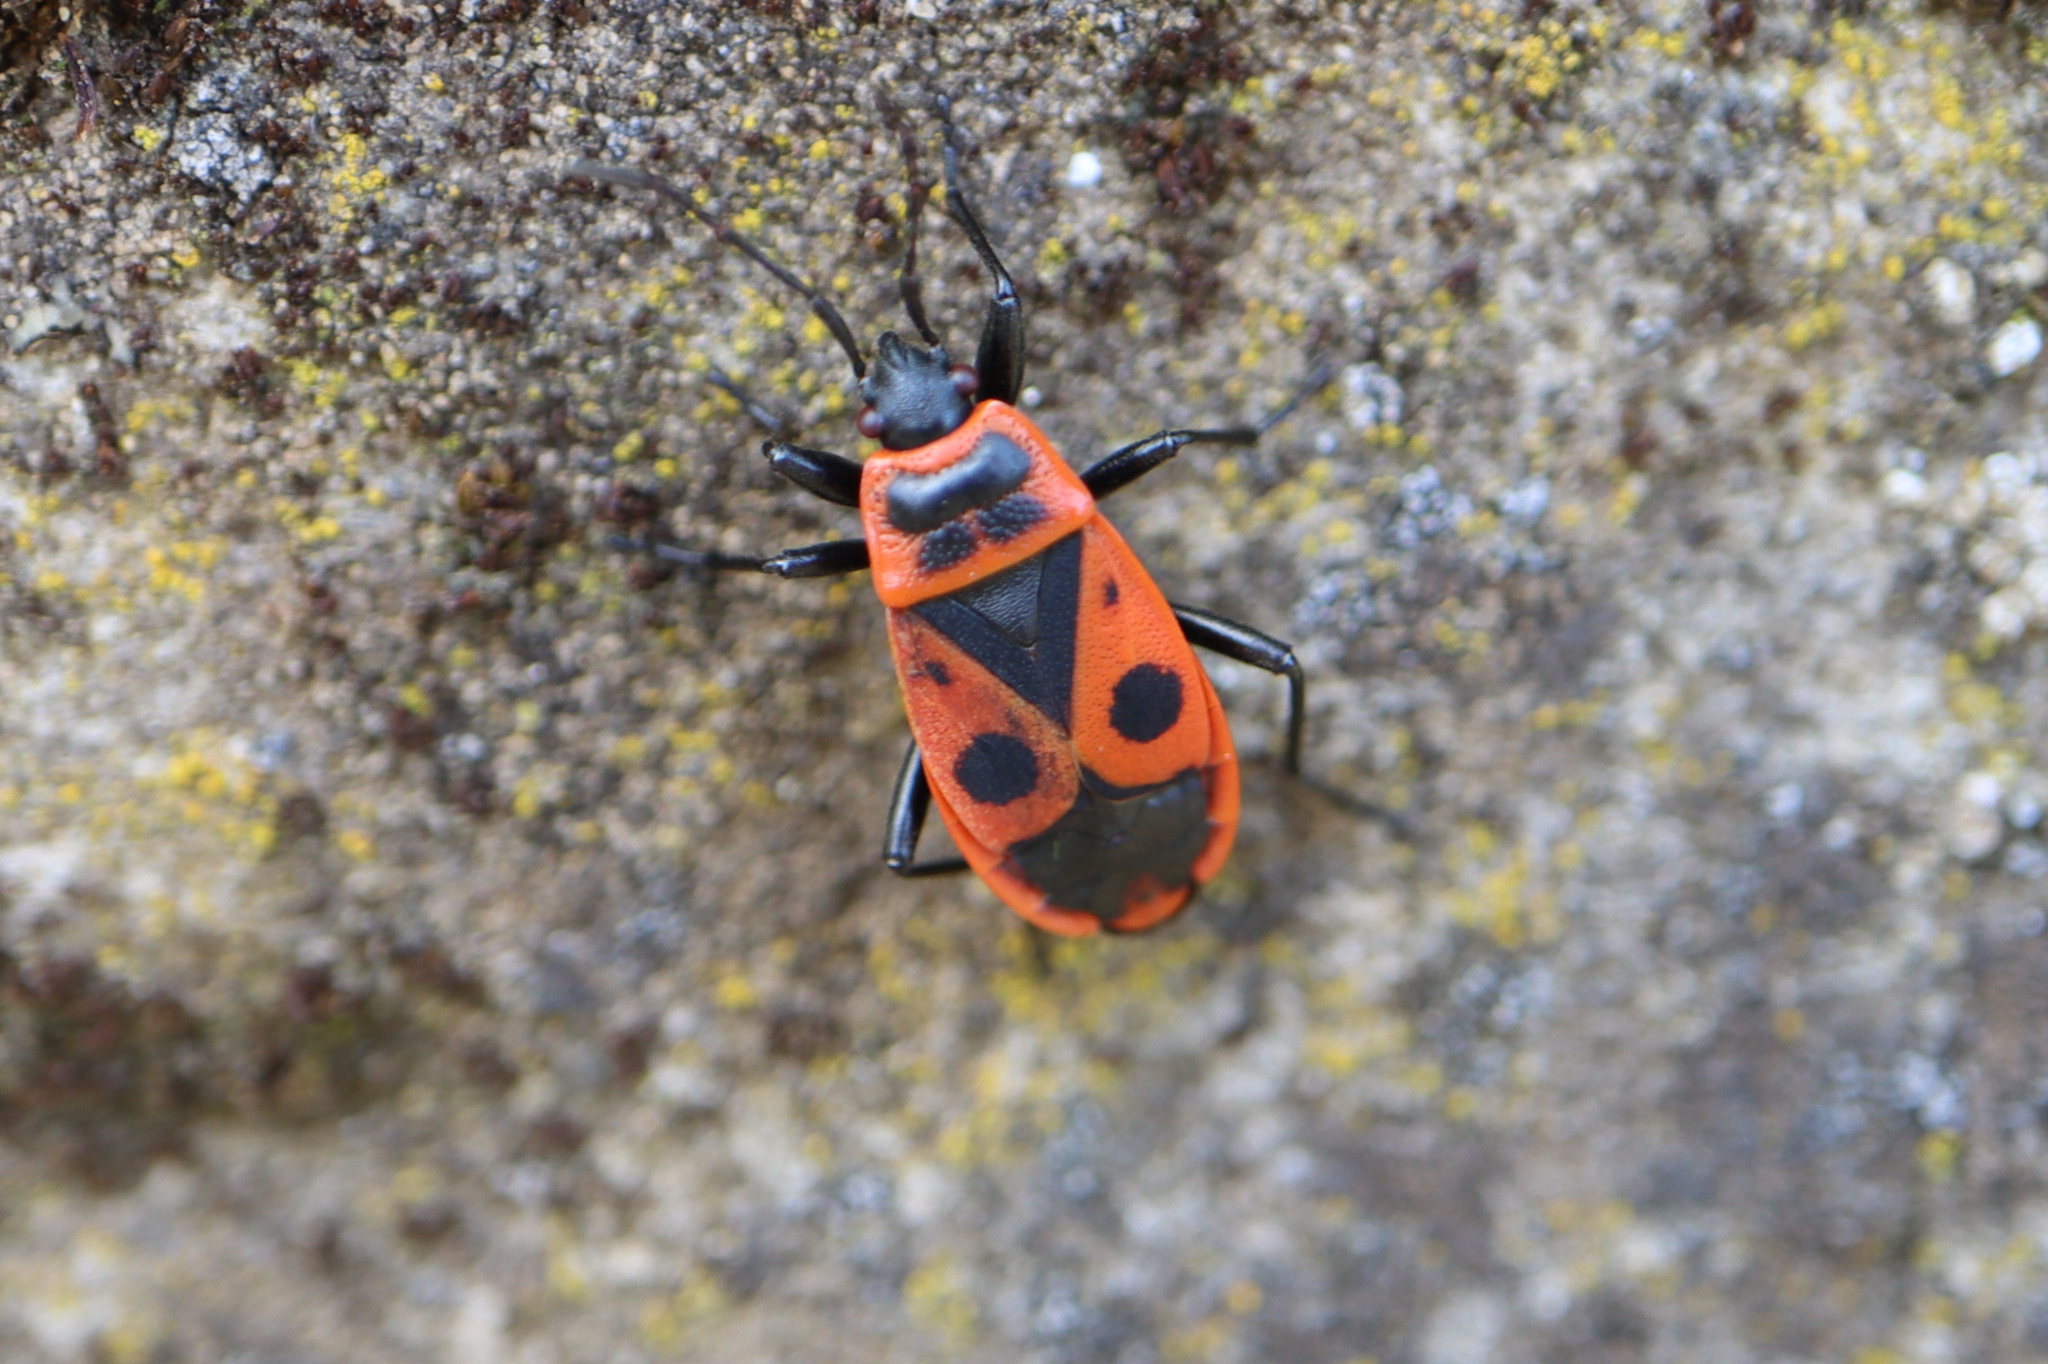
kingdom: Animalia
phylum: Arthropoda
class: Insecta
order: Hemiptera
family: Pyrrhocoridae
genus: Pyrrhocoris
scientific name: Pyrrhocoris apterus
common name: Firebug
